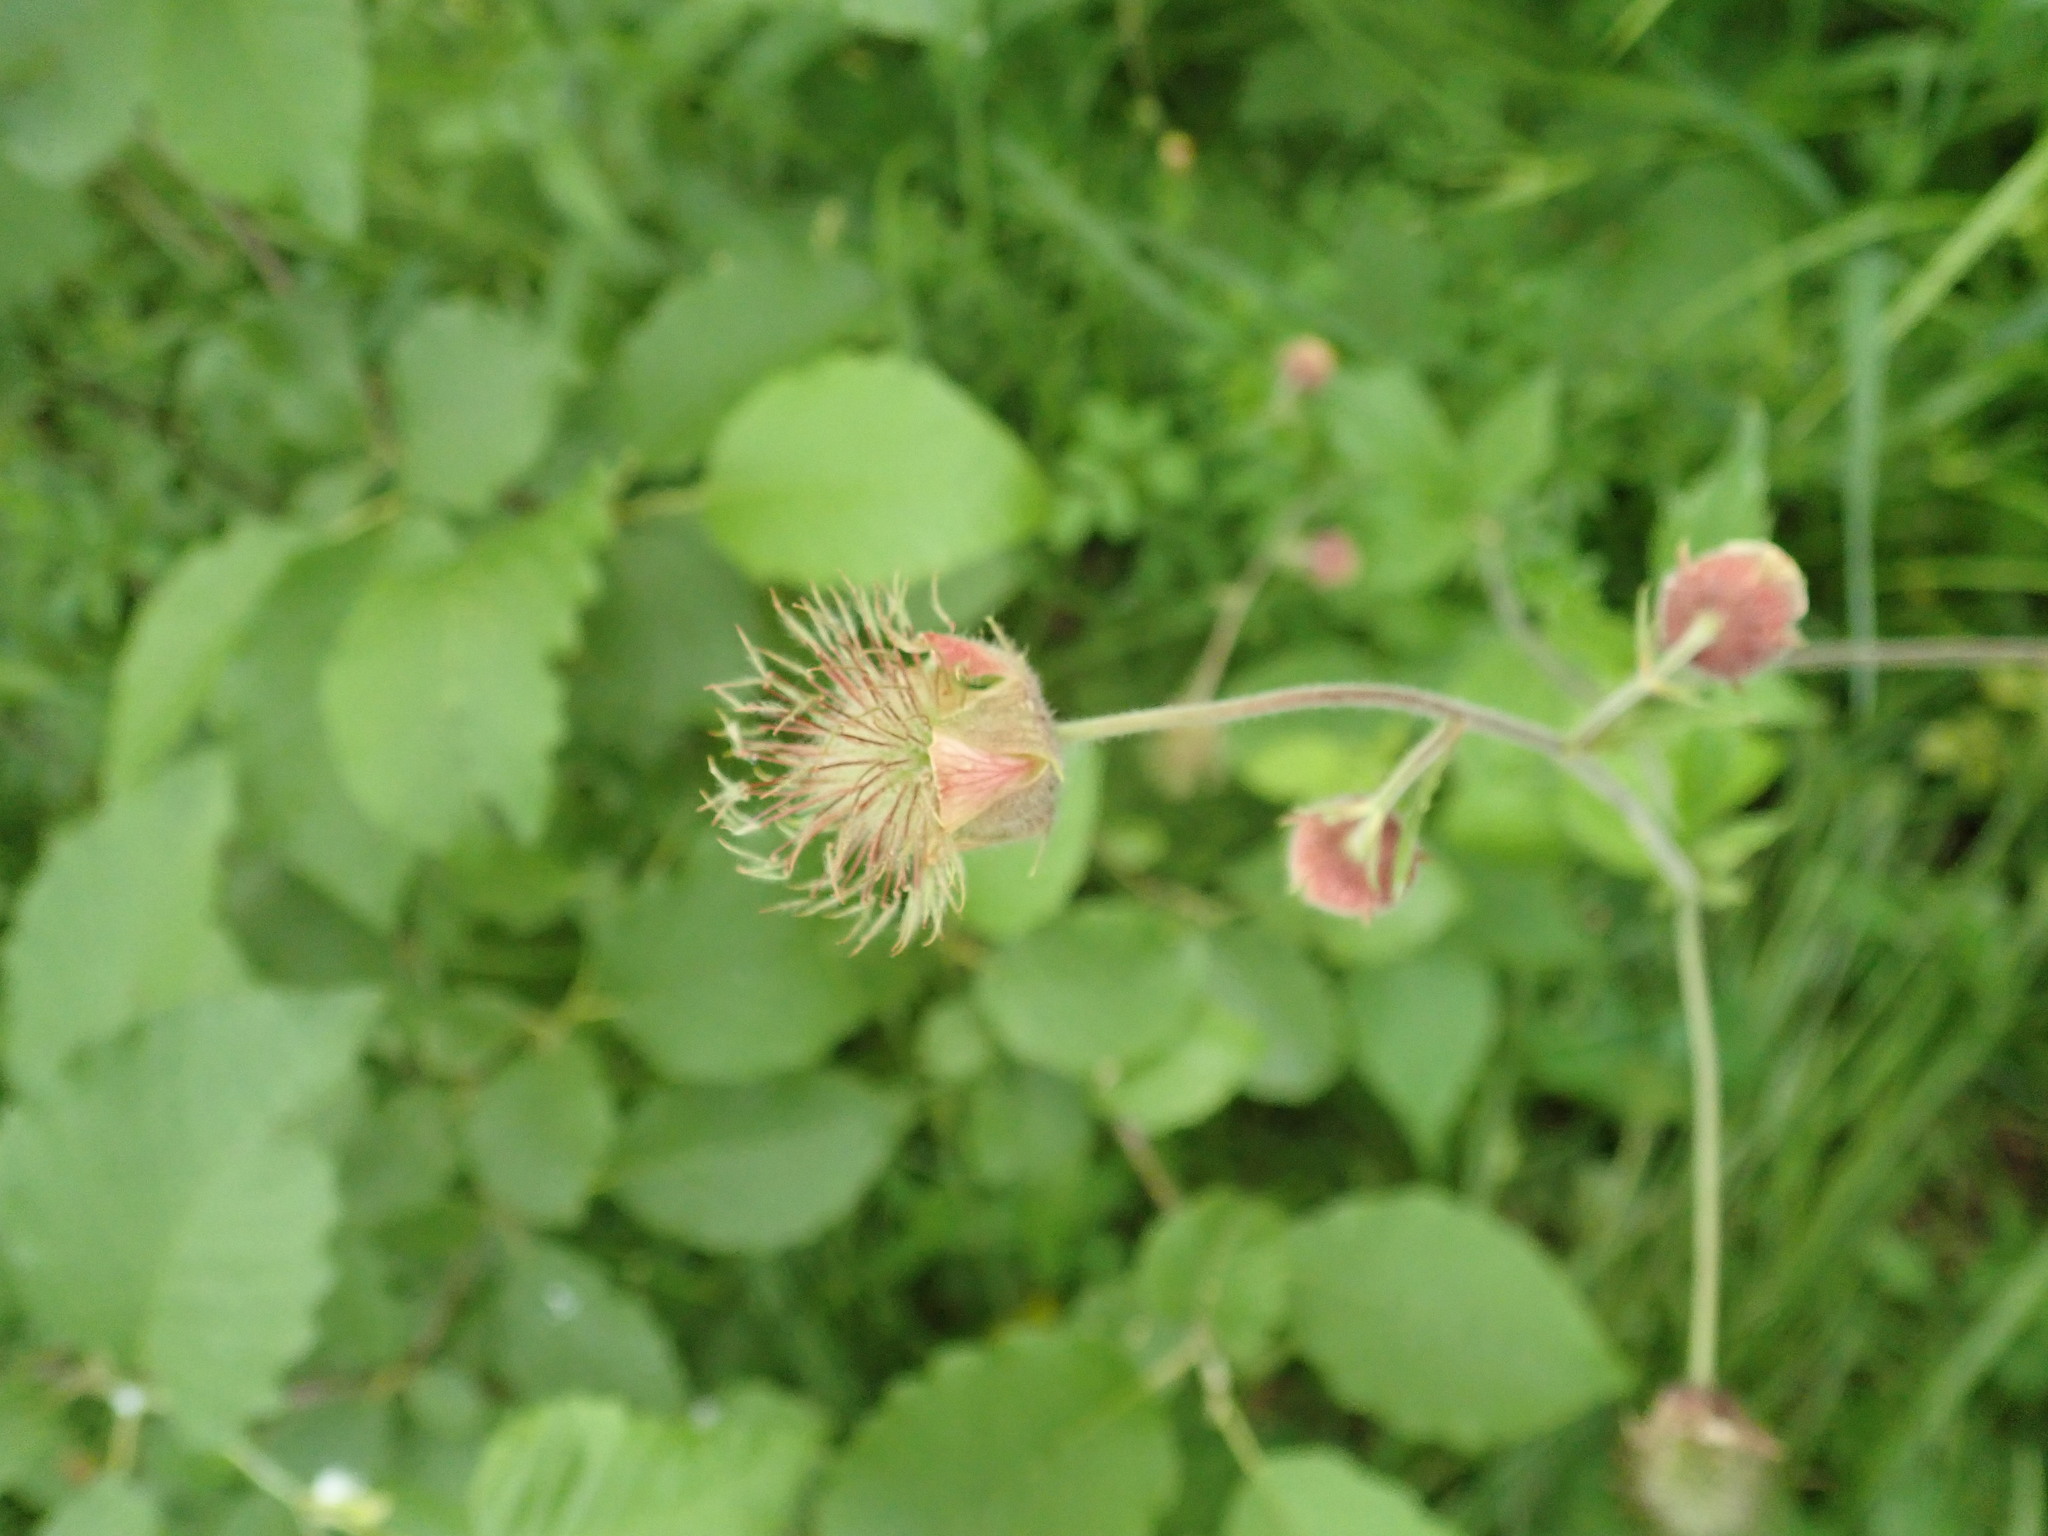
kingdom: Plantae
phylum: Tracheophyta
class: Magnoliopsida
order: Rosales
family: Rosaceae
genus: Geum
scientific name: Geum rivale
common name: Water avens
